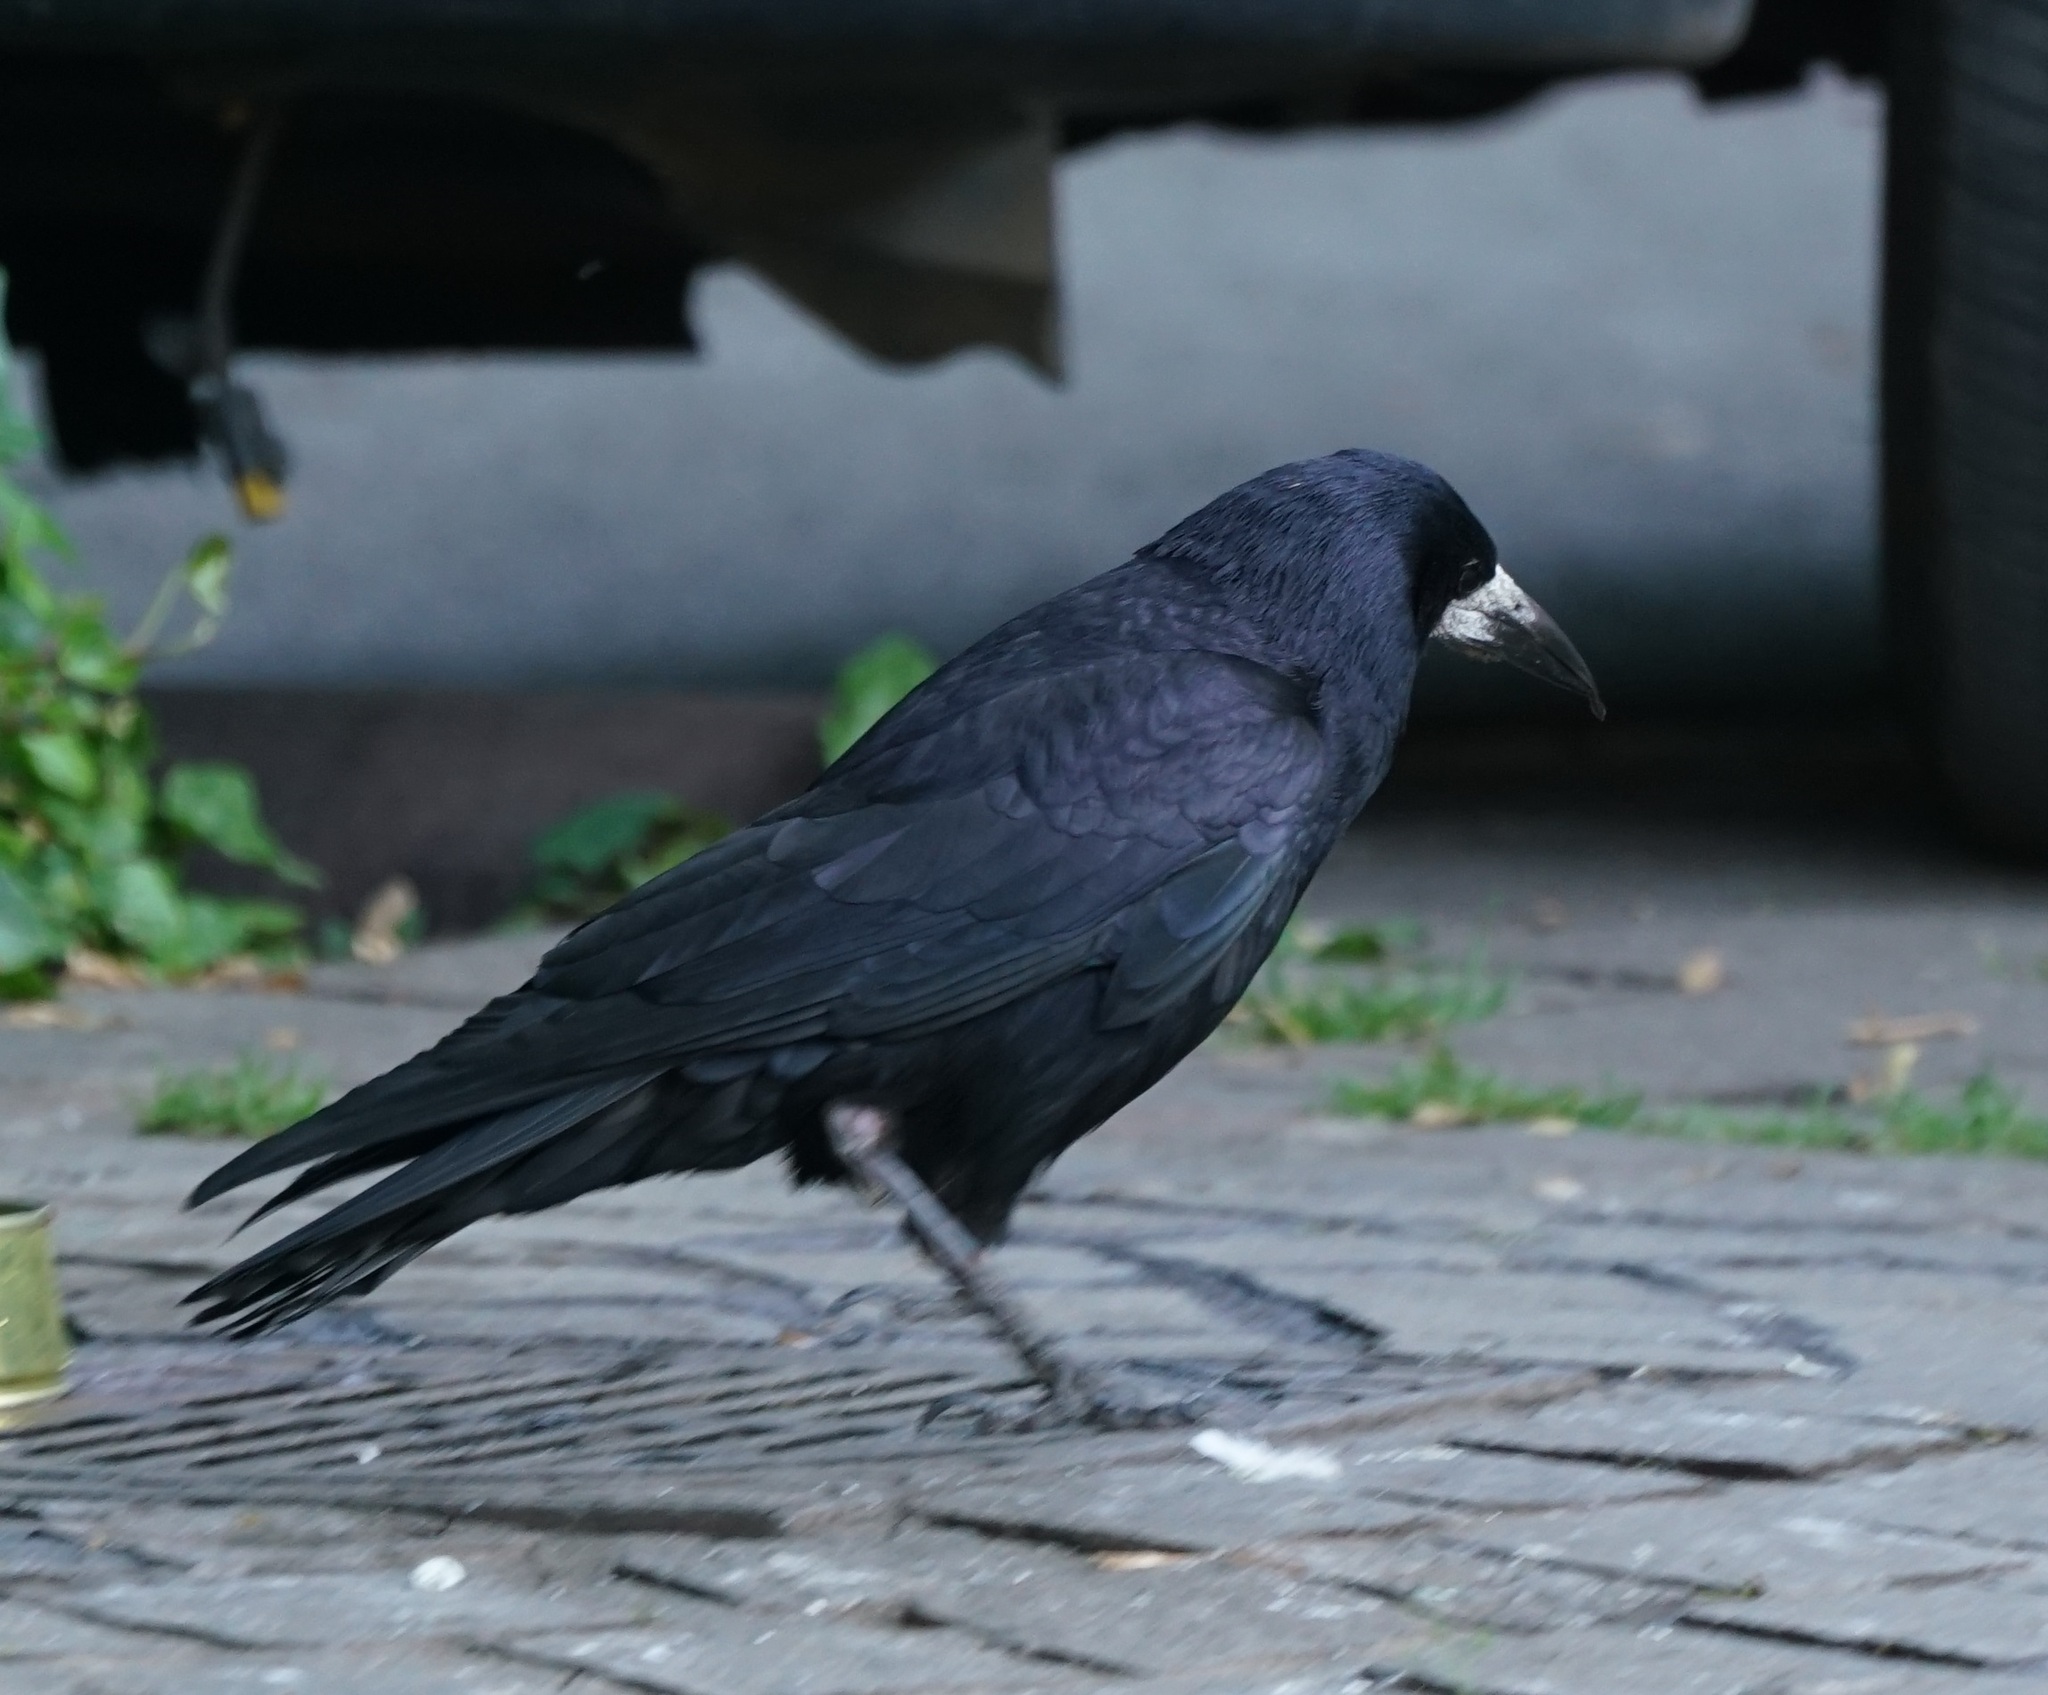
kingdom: Animalia
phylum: Chordata
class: Aves
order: Passeriformes
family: Corvidae
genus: Corvus
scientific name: Corvus frugilegus
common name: Rook
